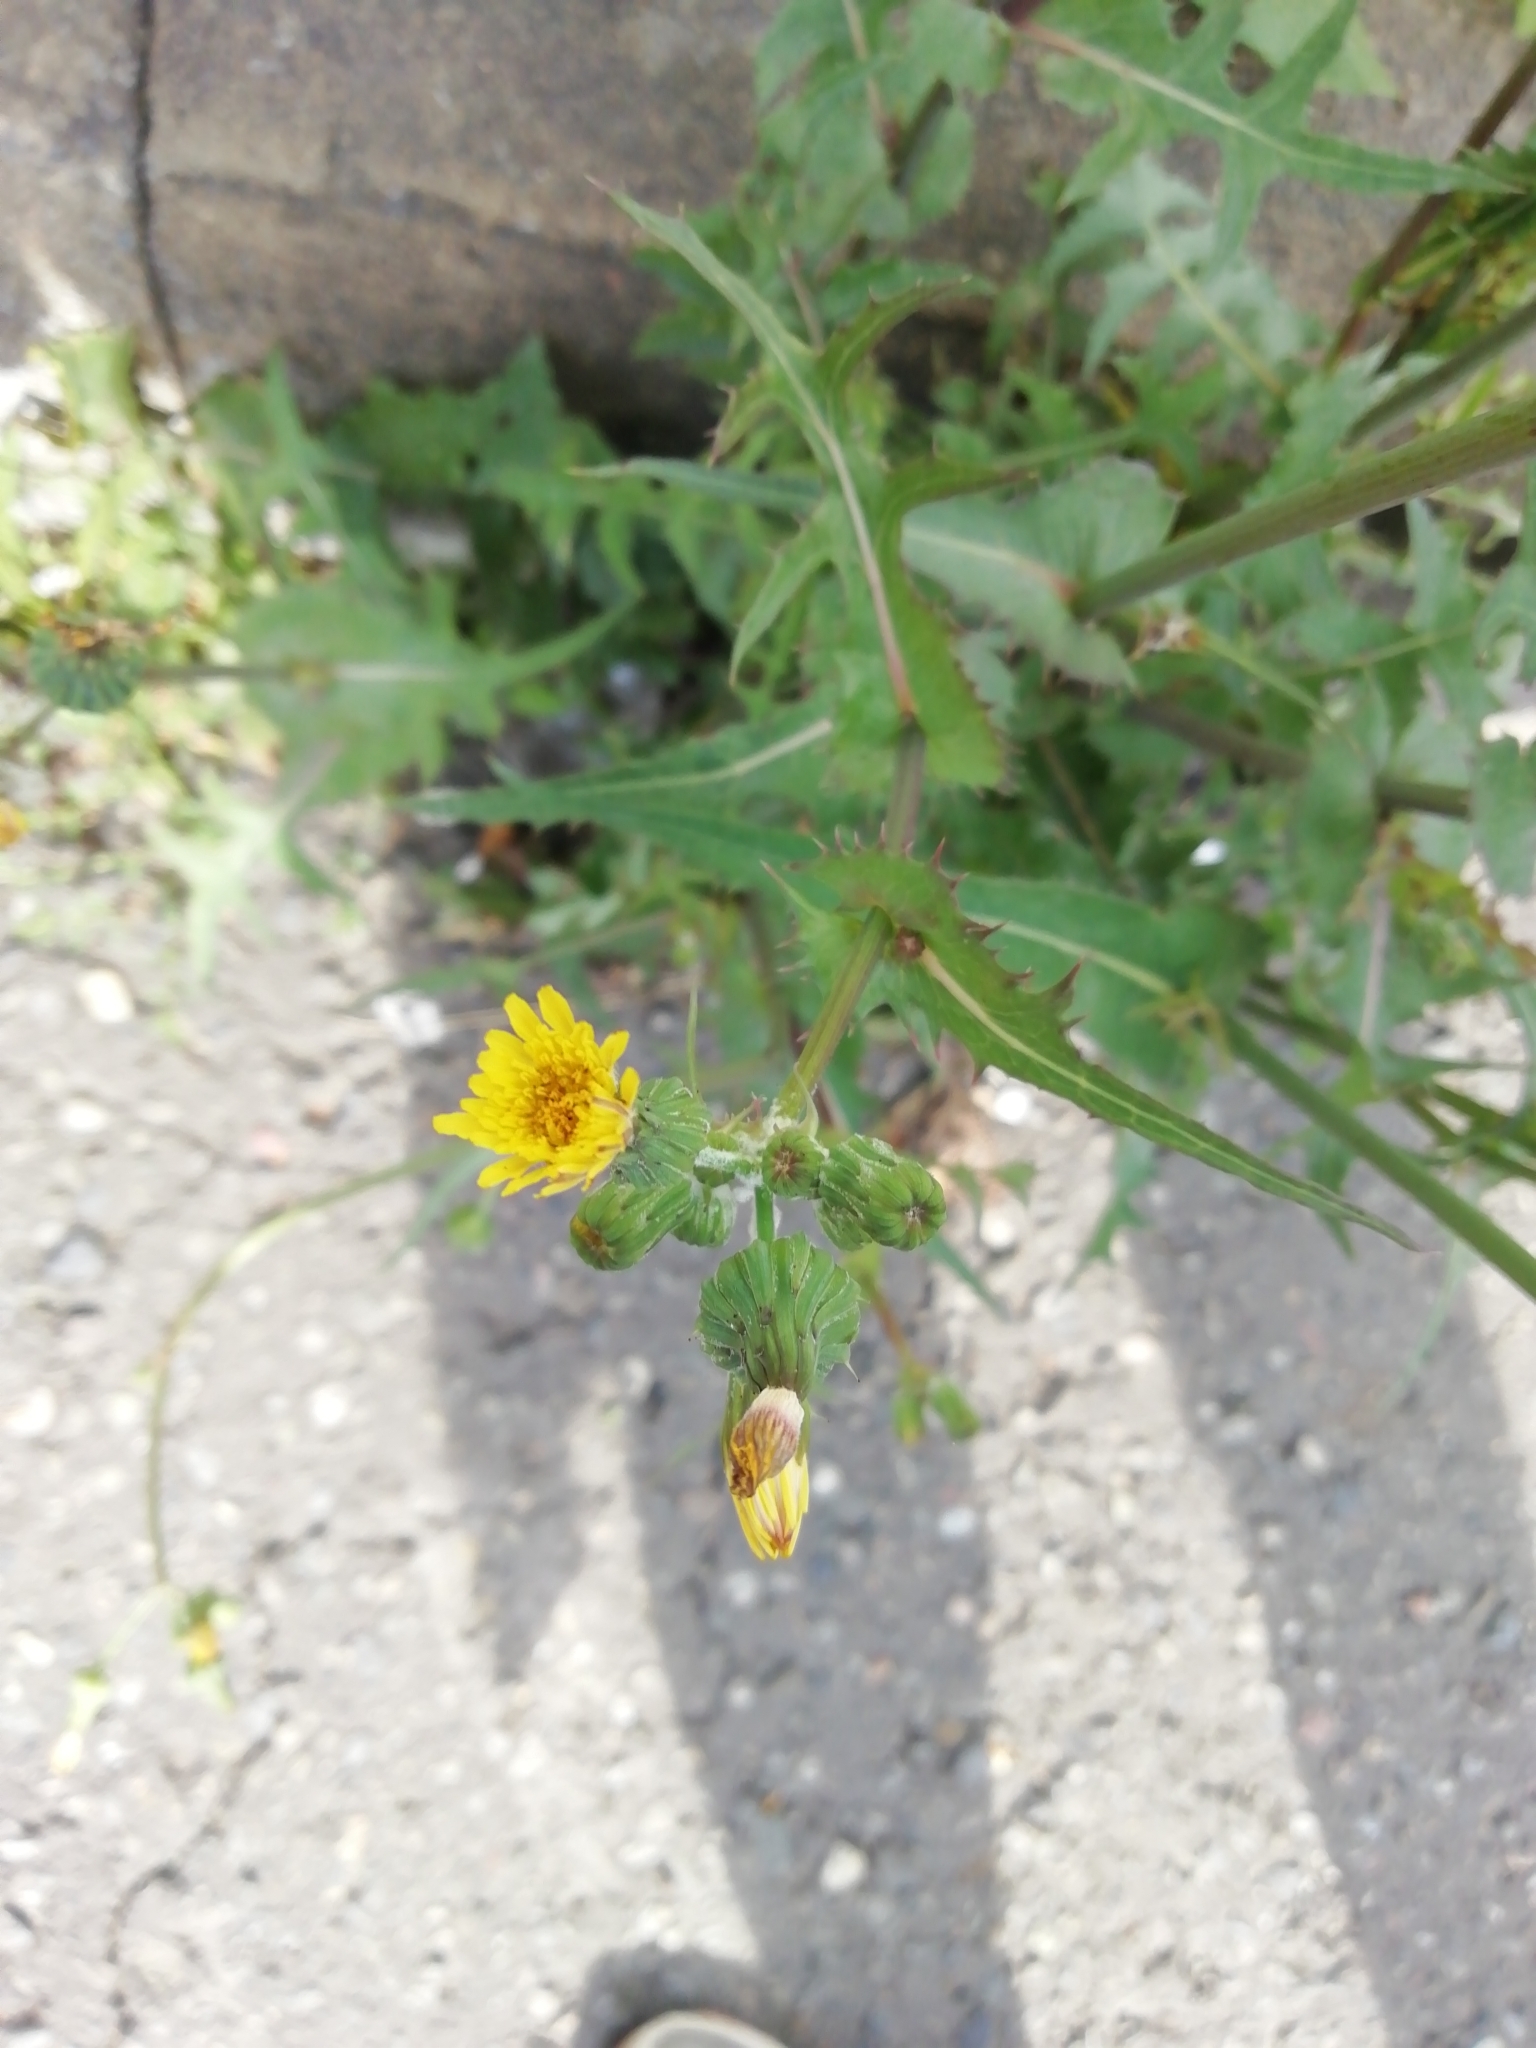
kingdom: Plantae
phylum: Tracheophyta
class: Magnoliopsida
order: Asterales
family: Asteraceae
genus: Sonchus
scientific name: Sonchus oleraceus
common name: Common sowthistle
